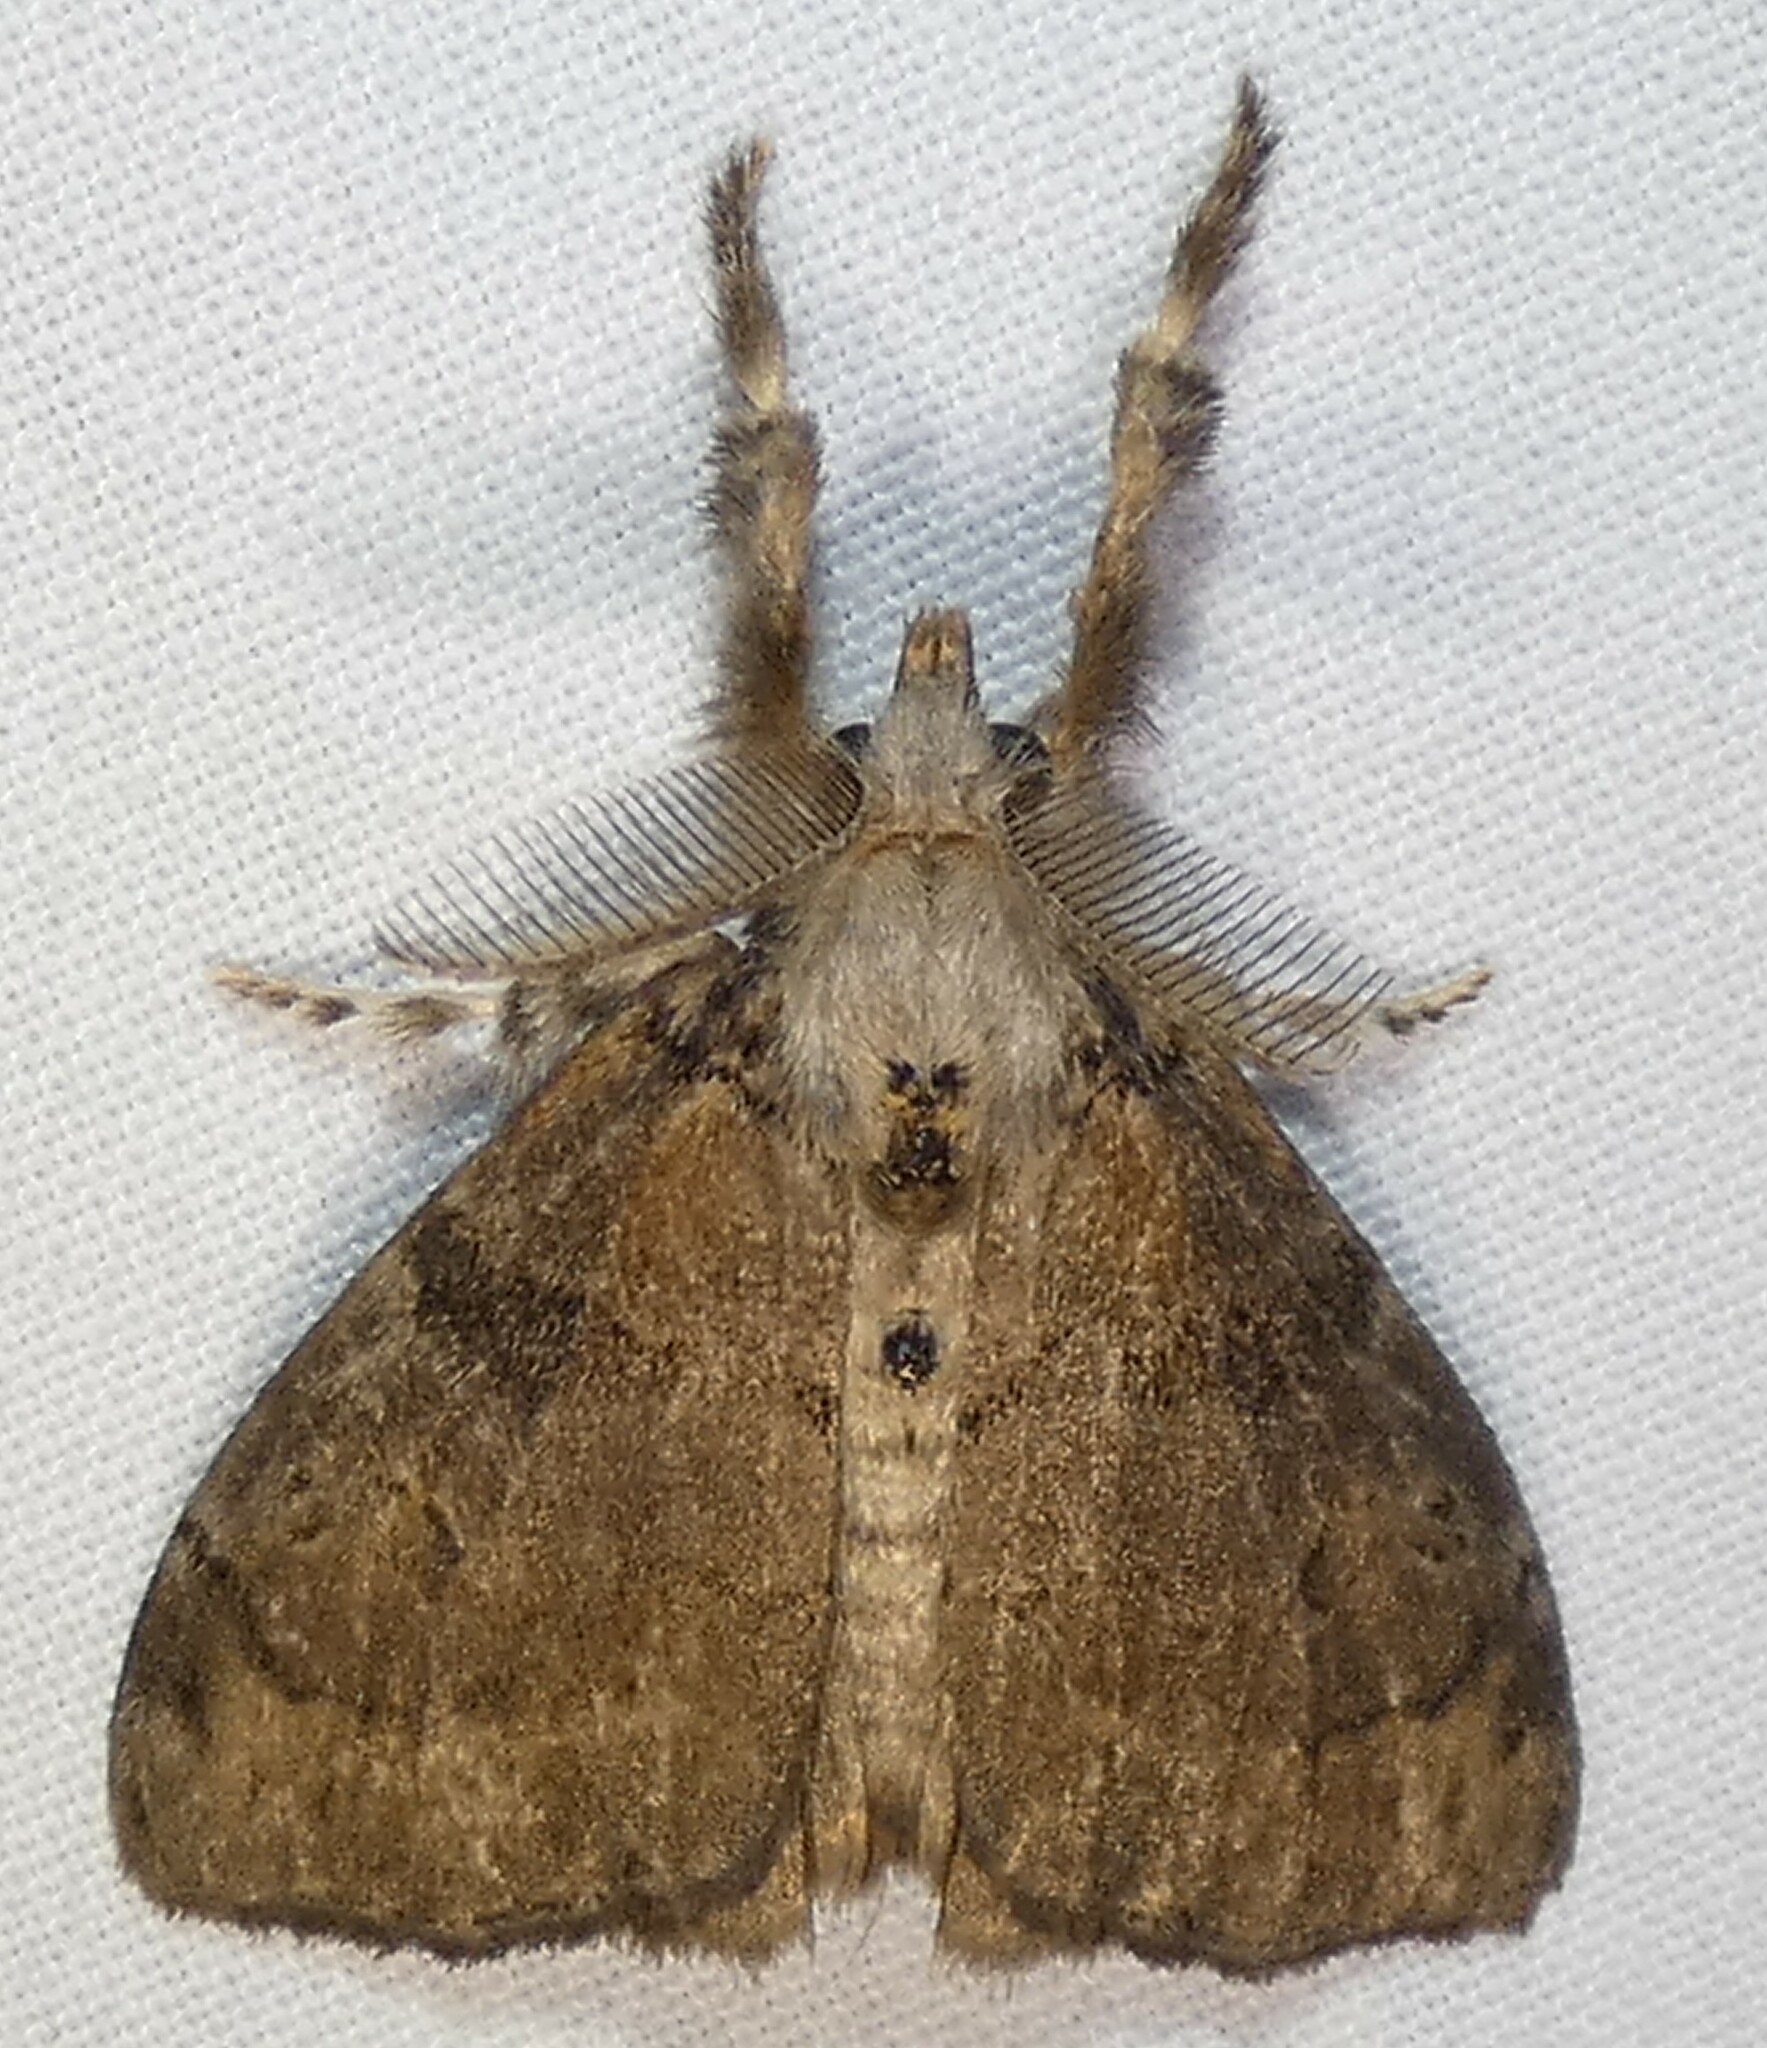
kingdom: Animalia
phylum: Arthropoda
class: Insecta
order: Lepidoptera
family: Erebidae
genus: Orgyia
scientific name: Orgyia leucostigma
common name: White-marked tussock moth
